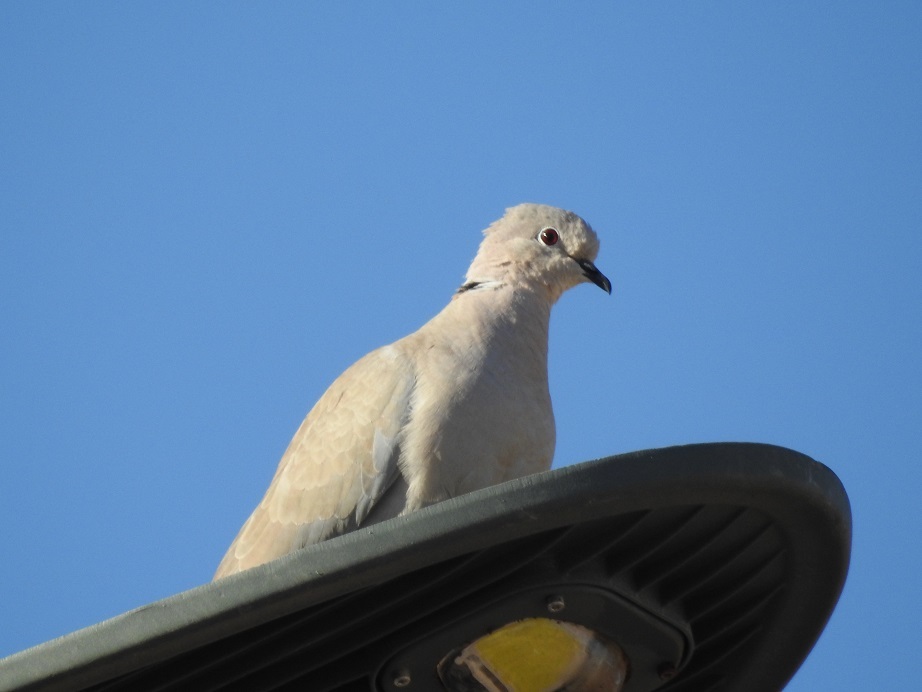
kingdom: Animalia
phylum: Chordata
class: Aves
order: Columbiformes
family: Columbidae
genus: Streptopelia
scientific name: Streptopelia decaocto
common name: Eurasian collared dove
